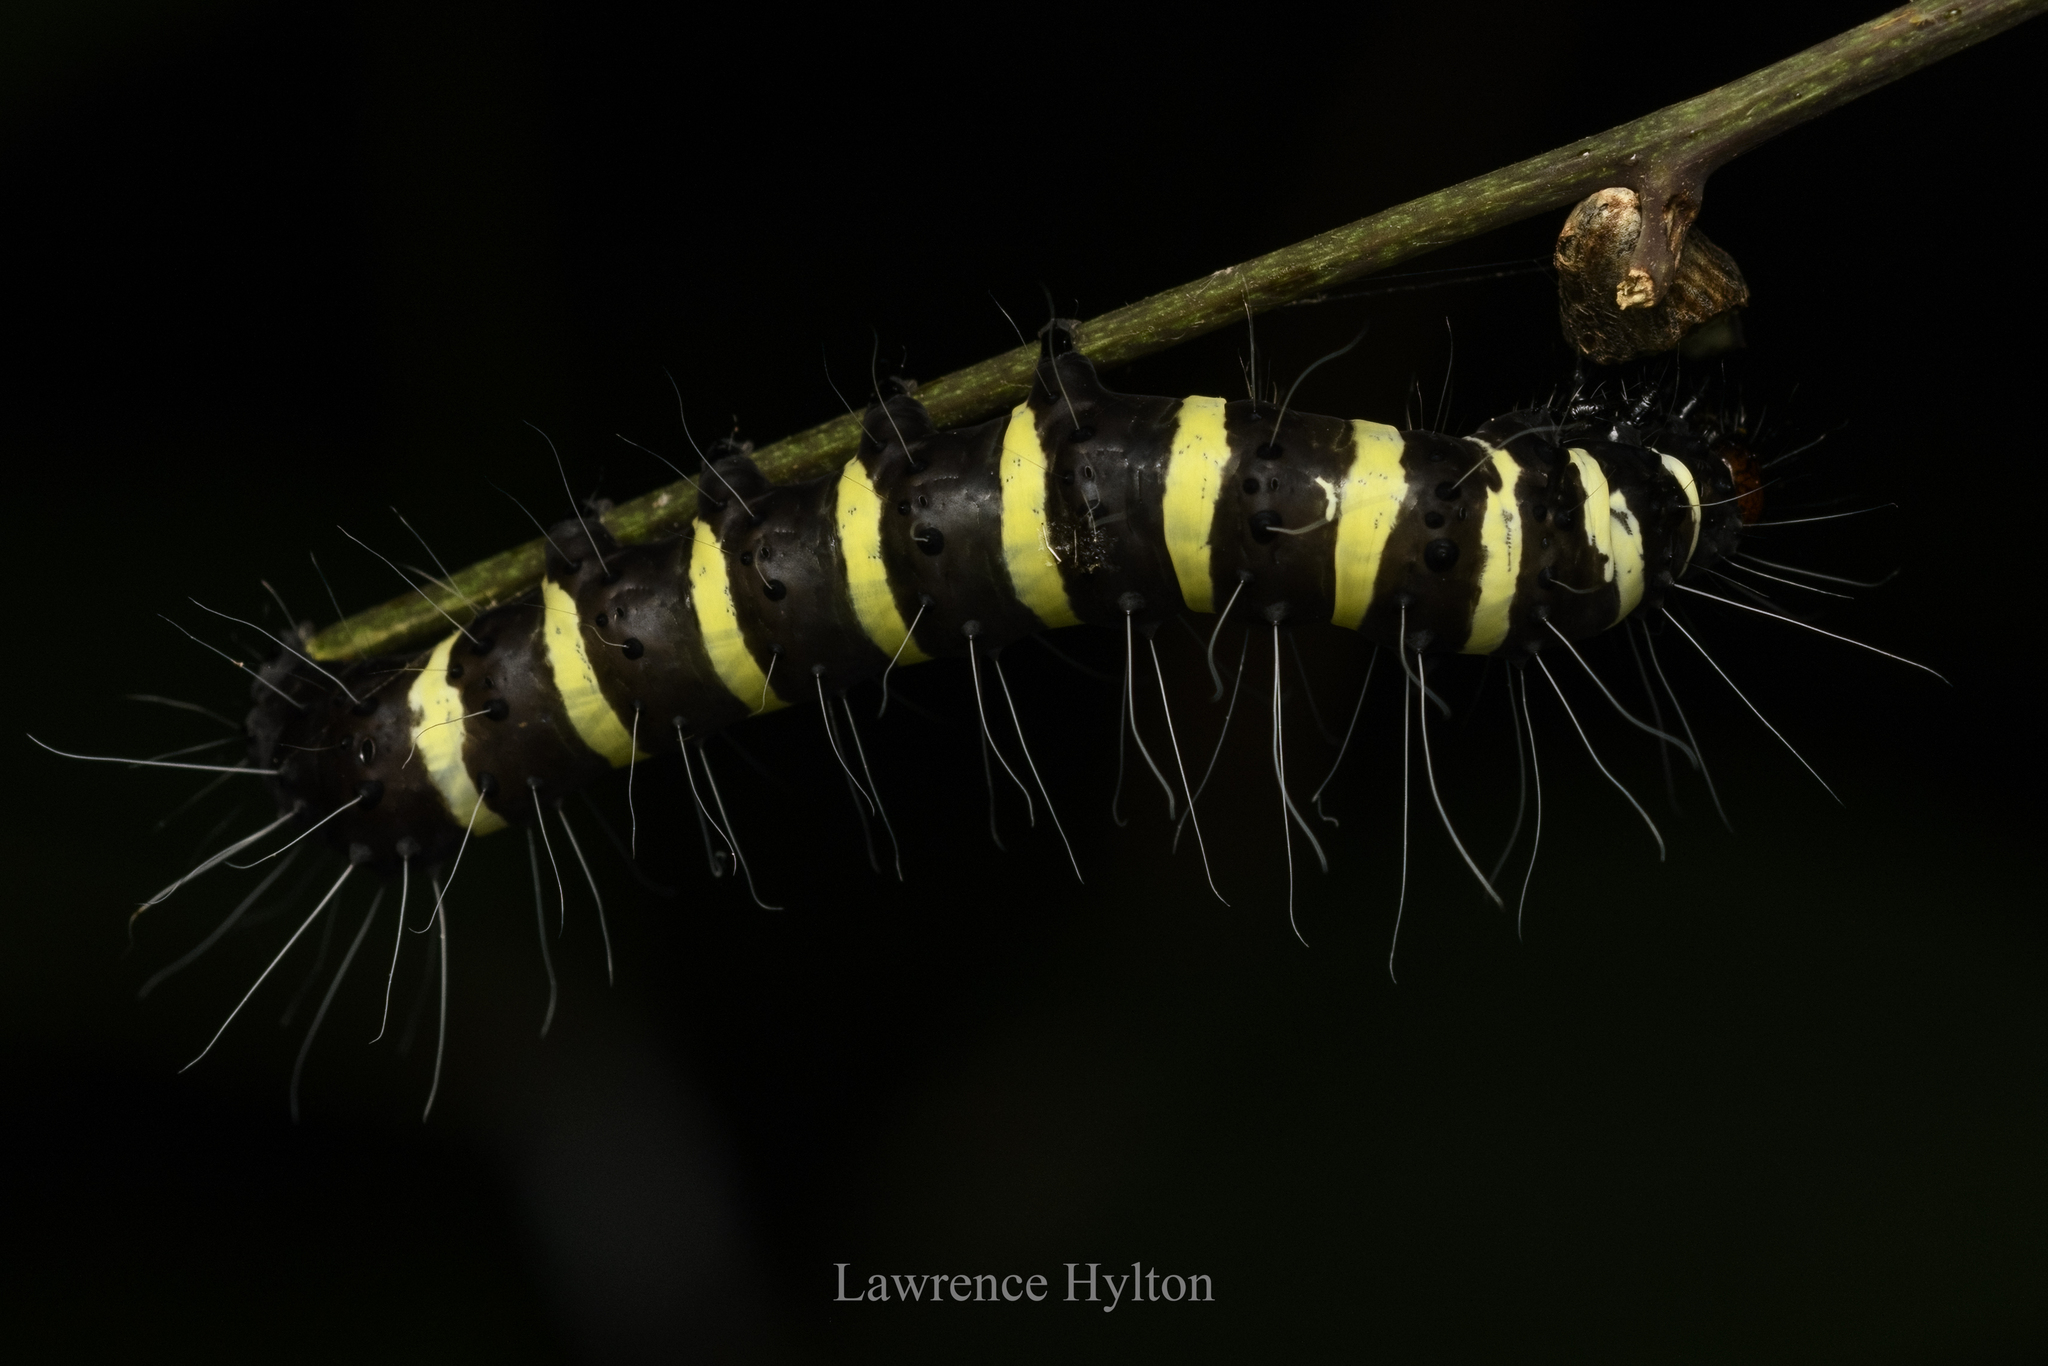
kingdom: Animalia
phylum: Arthropoda
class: Insecta
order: Lepidoptera
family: Pieridae
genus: Delias
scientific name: Delias pasithoe
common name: Red-base jezebel
